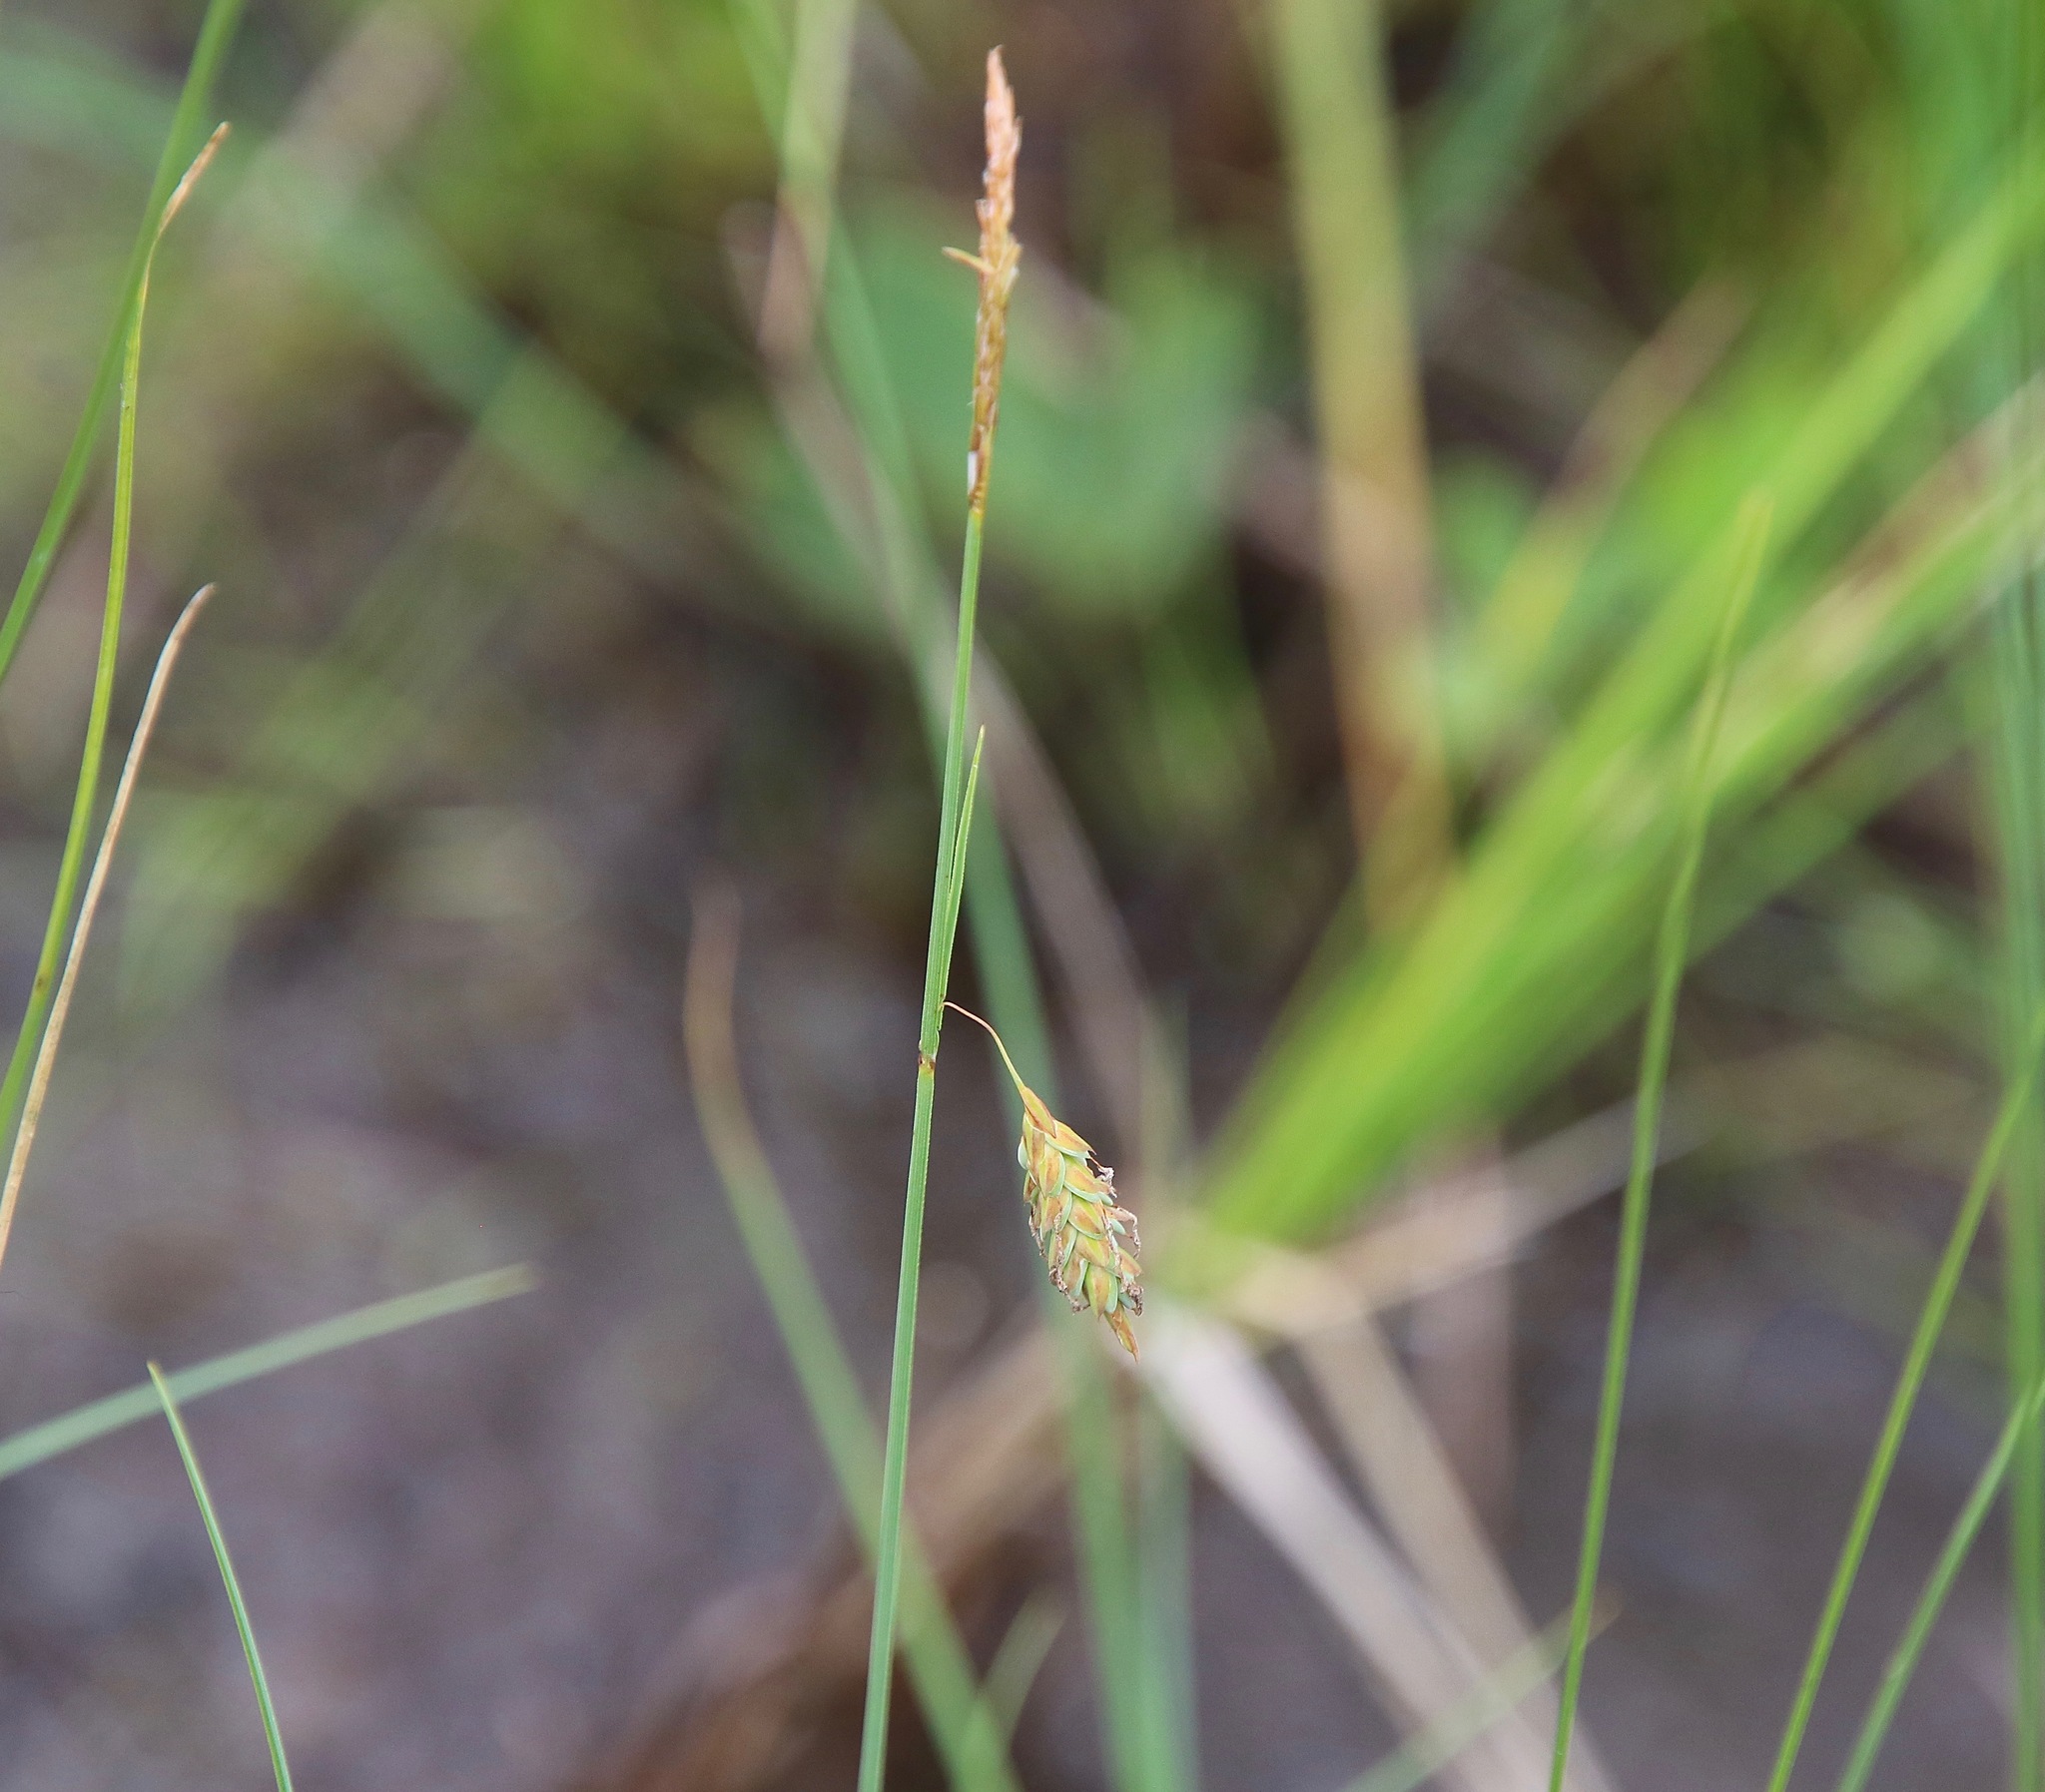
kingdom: Plantae
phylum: Tracheophyta
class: Liliopsida
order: Poales
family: Cyperaceae
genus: Carex
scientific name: Carex limosa
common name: Bog sedge
